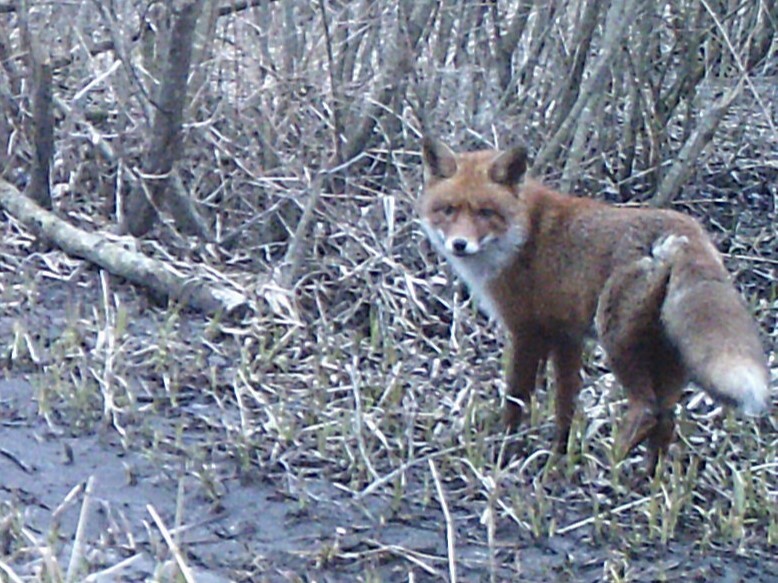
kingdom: Animalia
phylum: Chordata
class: Mammalia
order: Carnivora
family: Canidae
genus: Vulpes
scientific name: Vulpes vulpes
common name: Red fox
